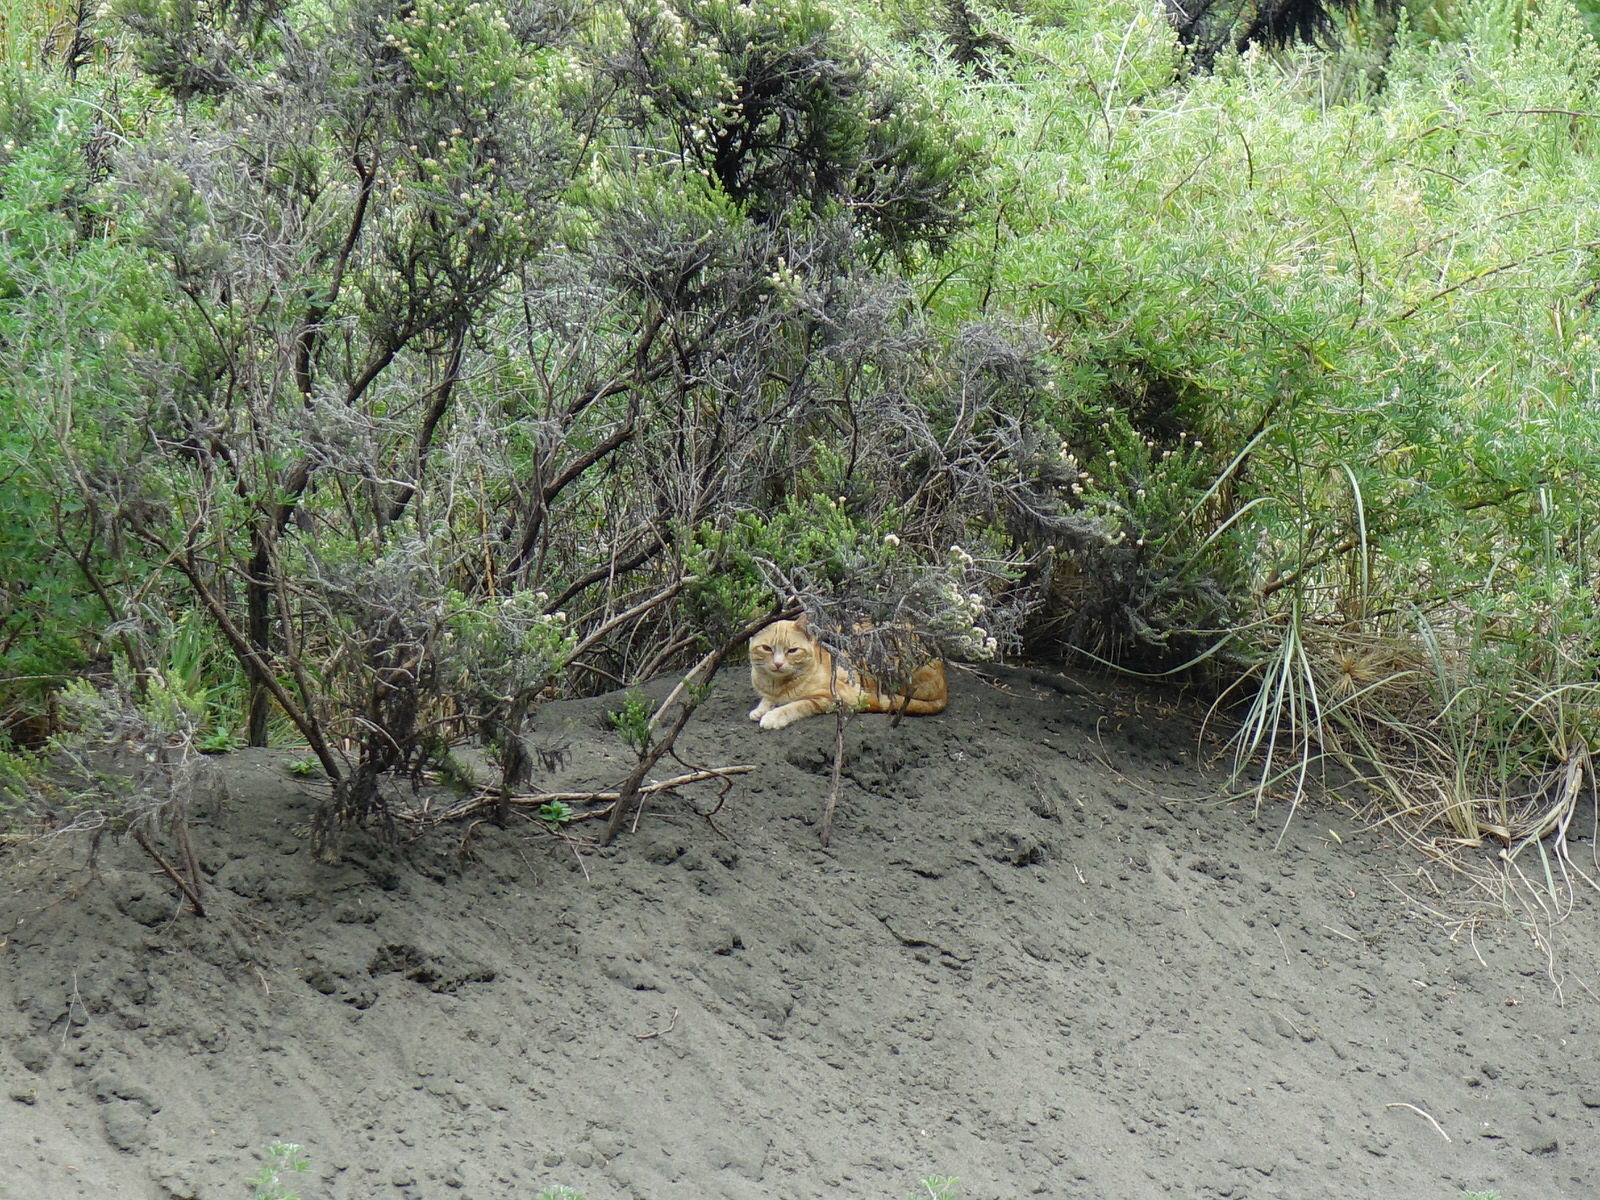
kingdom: Animalia
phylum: Chordata
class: Mammalia
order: Carnivora
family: Felidae
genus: Felis
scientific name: Felis catus
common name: Domestic cat
